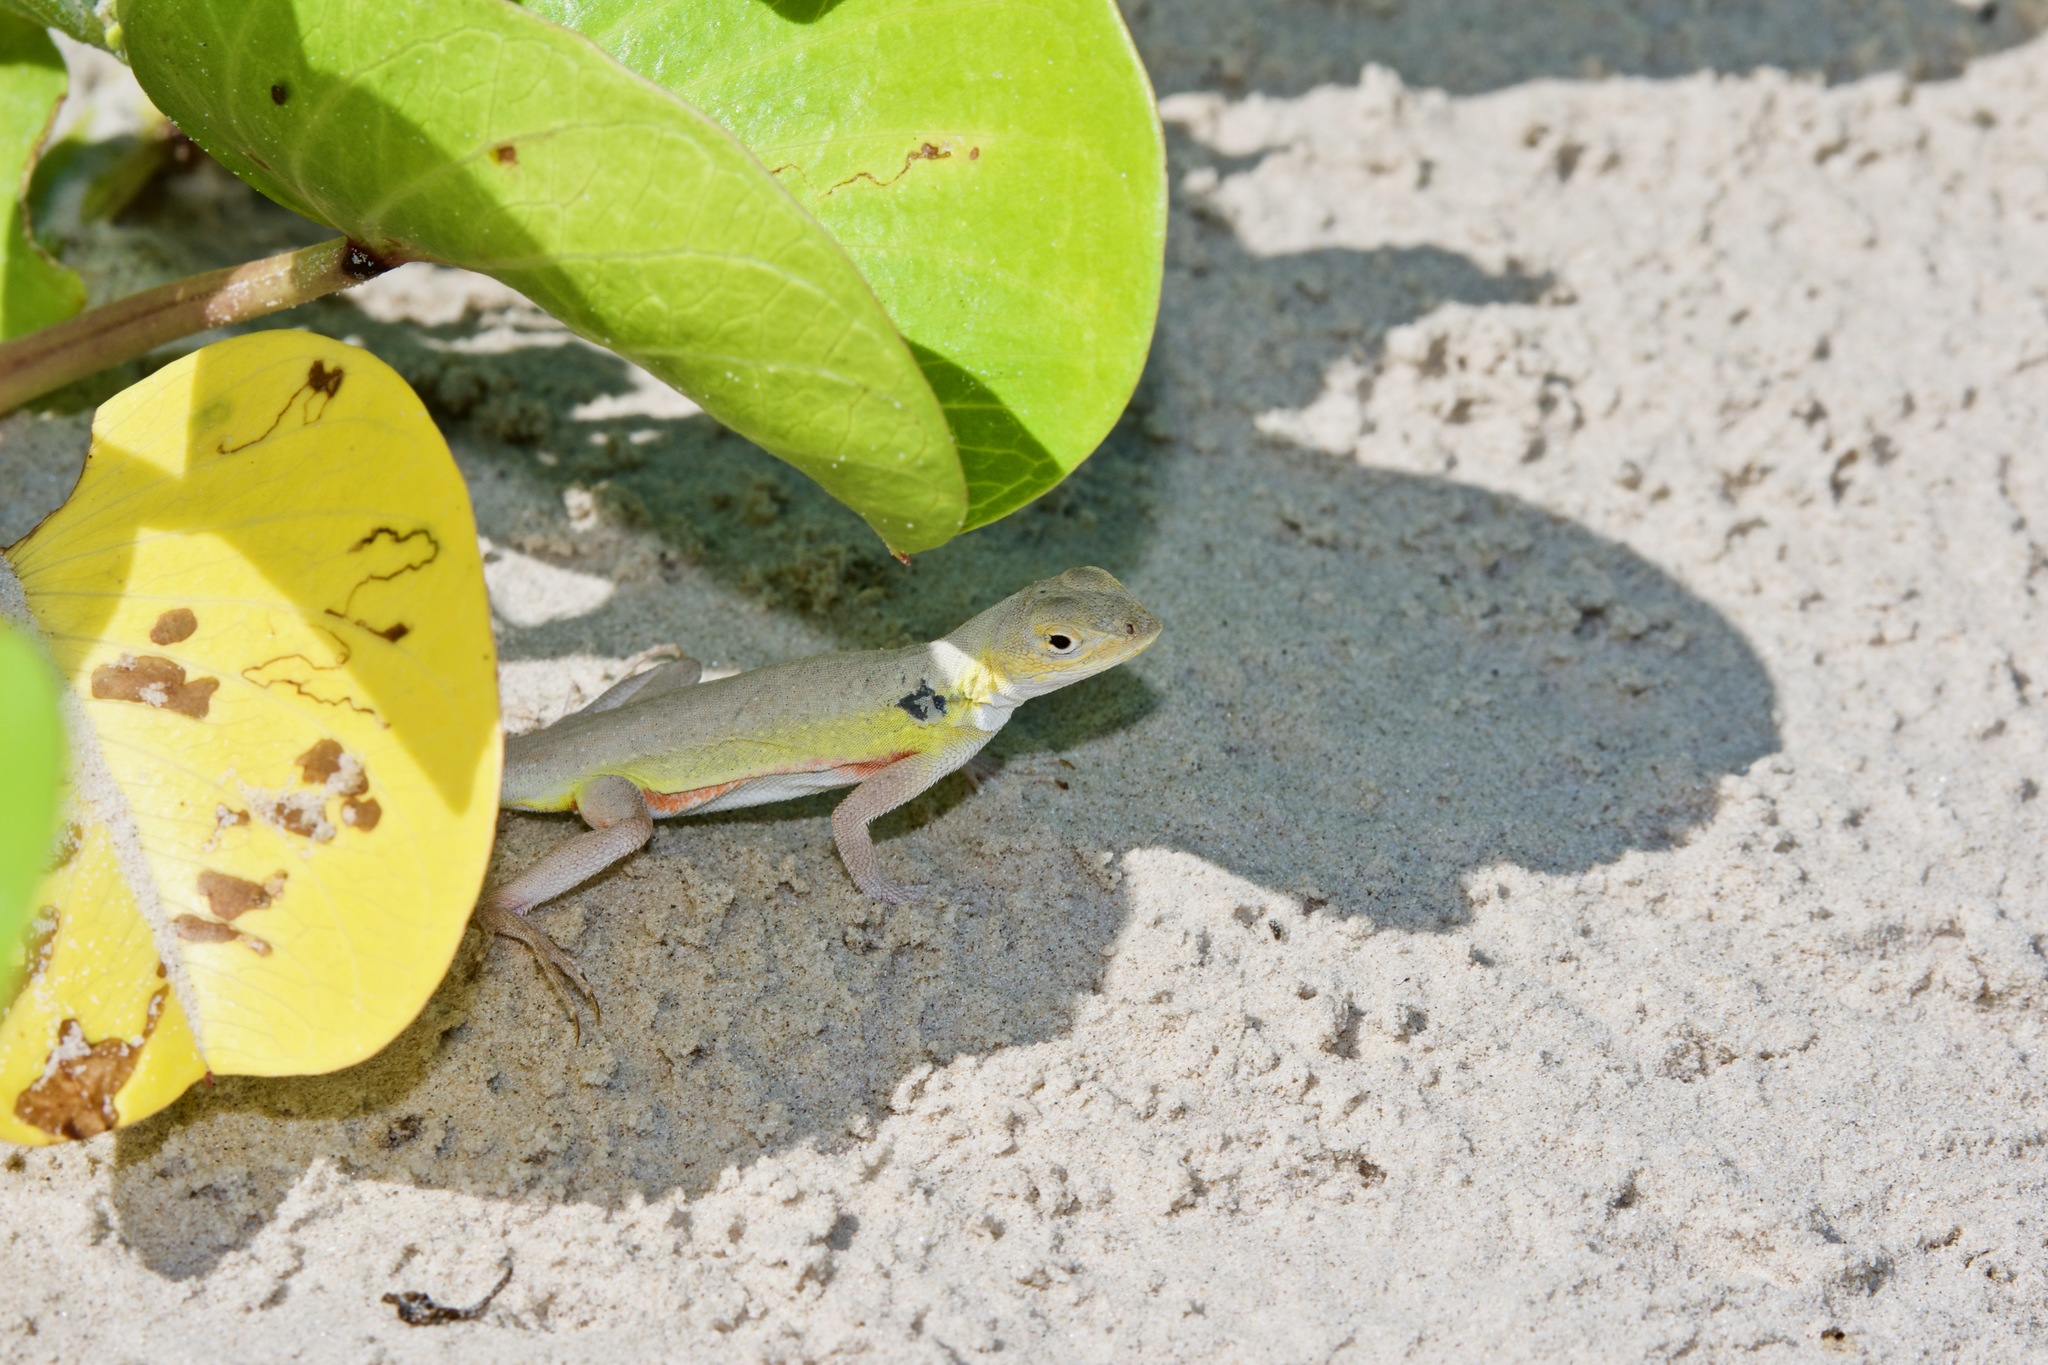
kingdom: Animalia
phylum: Chordata
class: Squamata
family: Phrynosomatidae
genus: Holbrookia
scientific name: Holbrookia propinqua
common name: Keeled earless lizard
